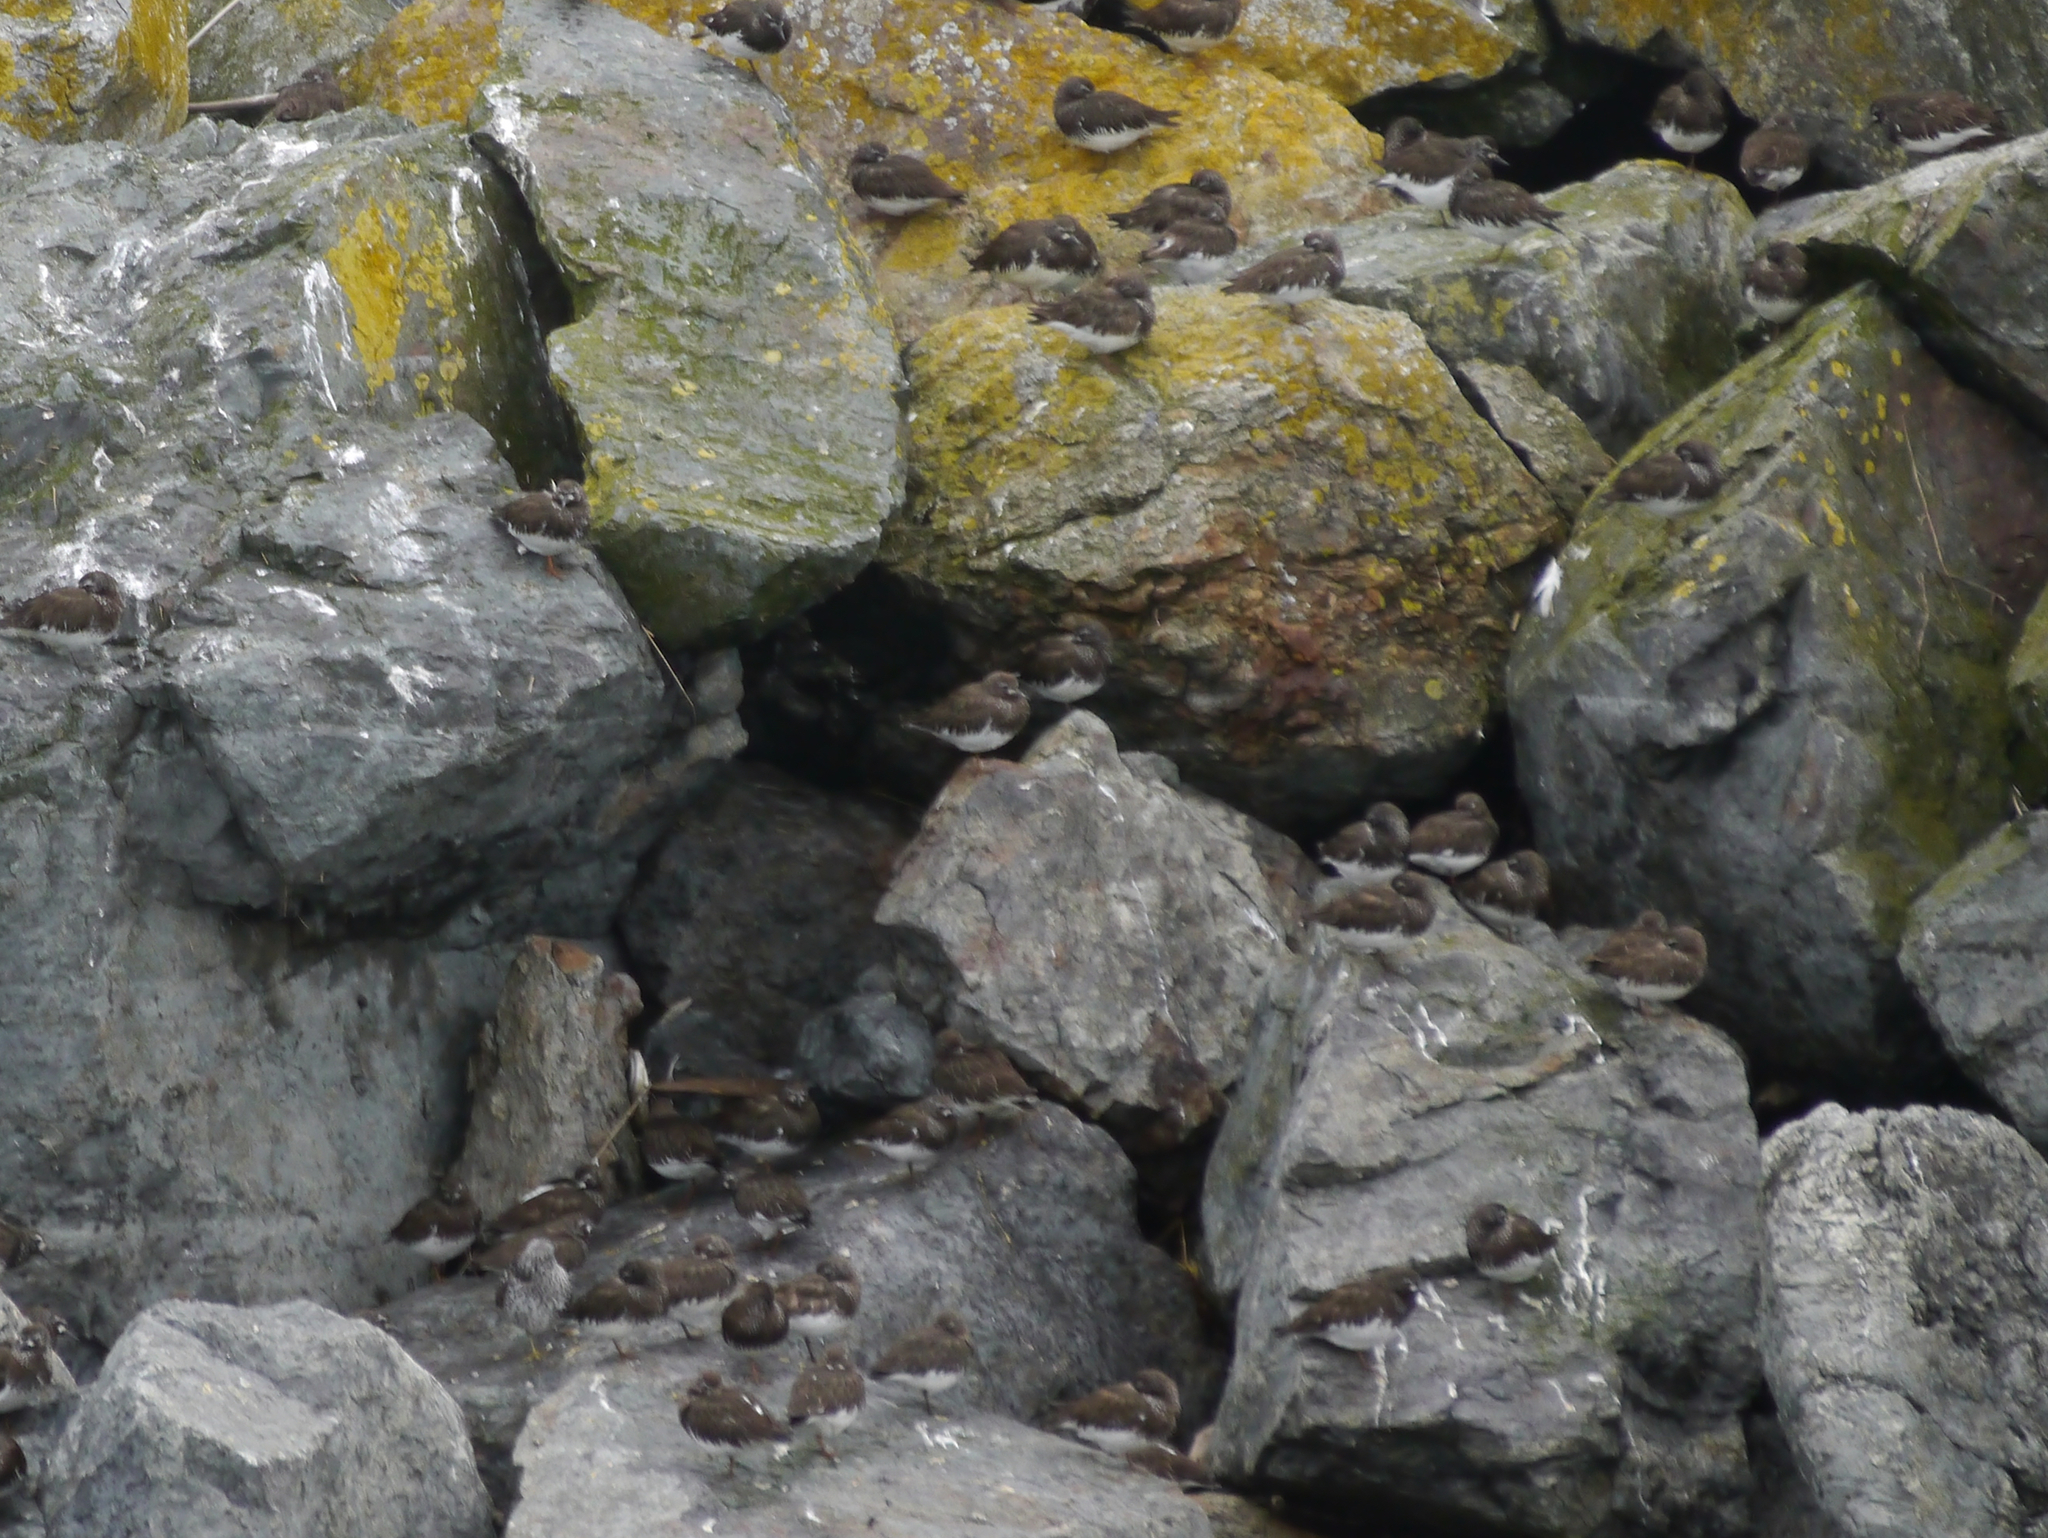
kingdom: Animalia
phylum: Chordata
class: Aves
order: Charadriiformes
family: Scolopacidae
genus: Arenaria
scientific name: Arenaria melanocephala
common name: Black turnstone
